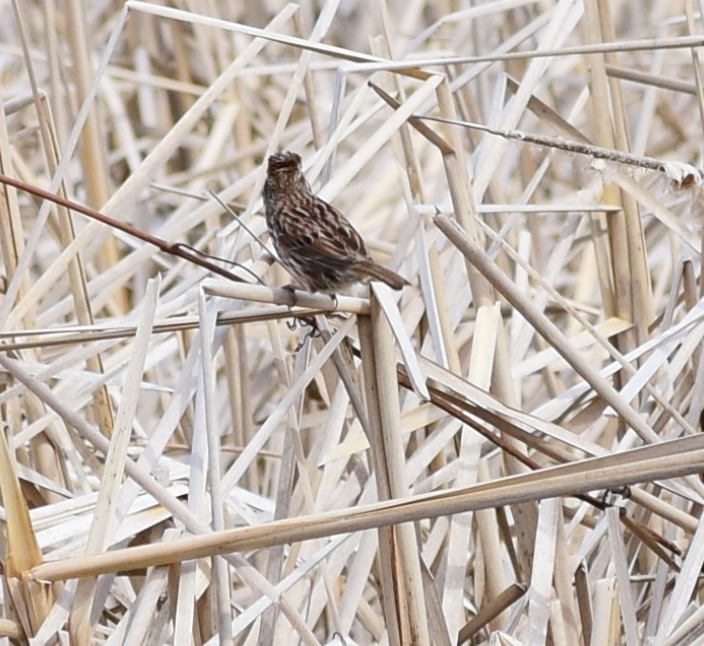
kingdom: Animalia
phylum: Chordata
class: Aves
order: Passeriformes
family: Passerellidae
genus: Melospiza
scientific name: Melospiza melodia
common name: Song sparrow
